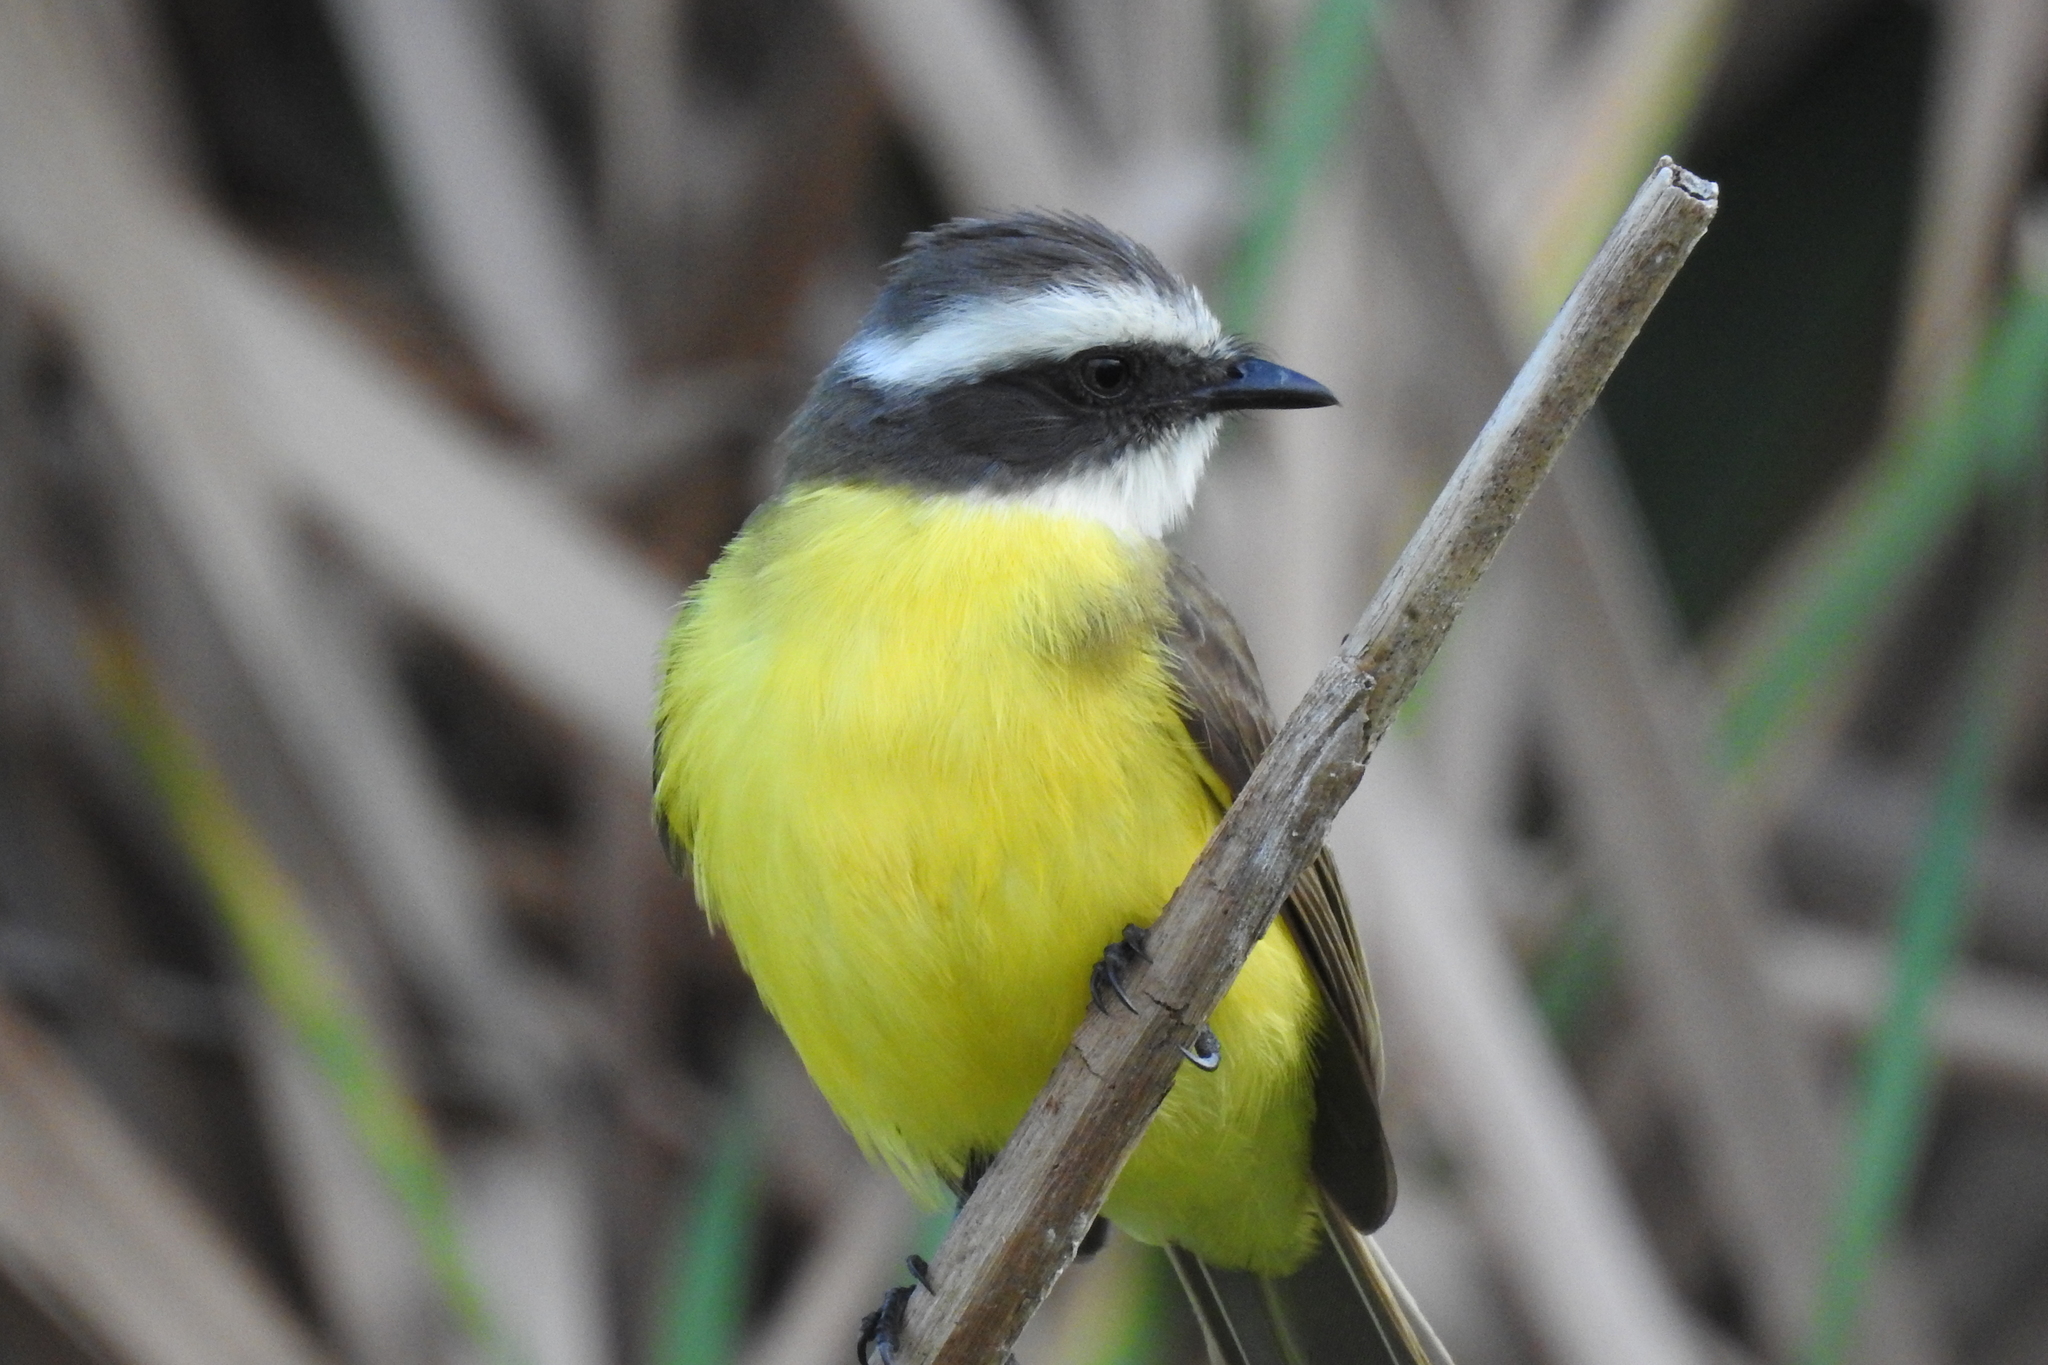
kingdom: Animalia
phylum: Chordata
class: Aves
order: Passeriformes
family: Tyrannidae
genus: Myiozetetes
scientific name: Myiozetetes similis
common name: Social flycatcher
